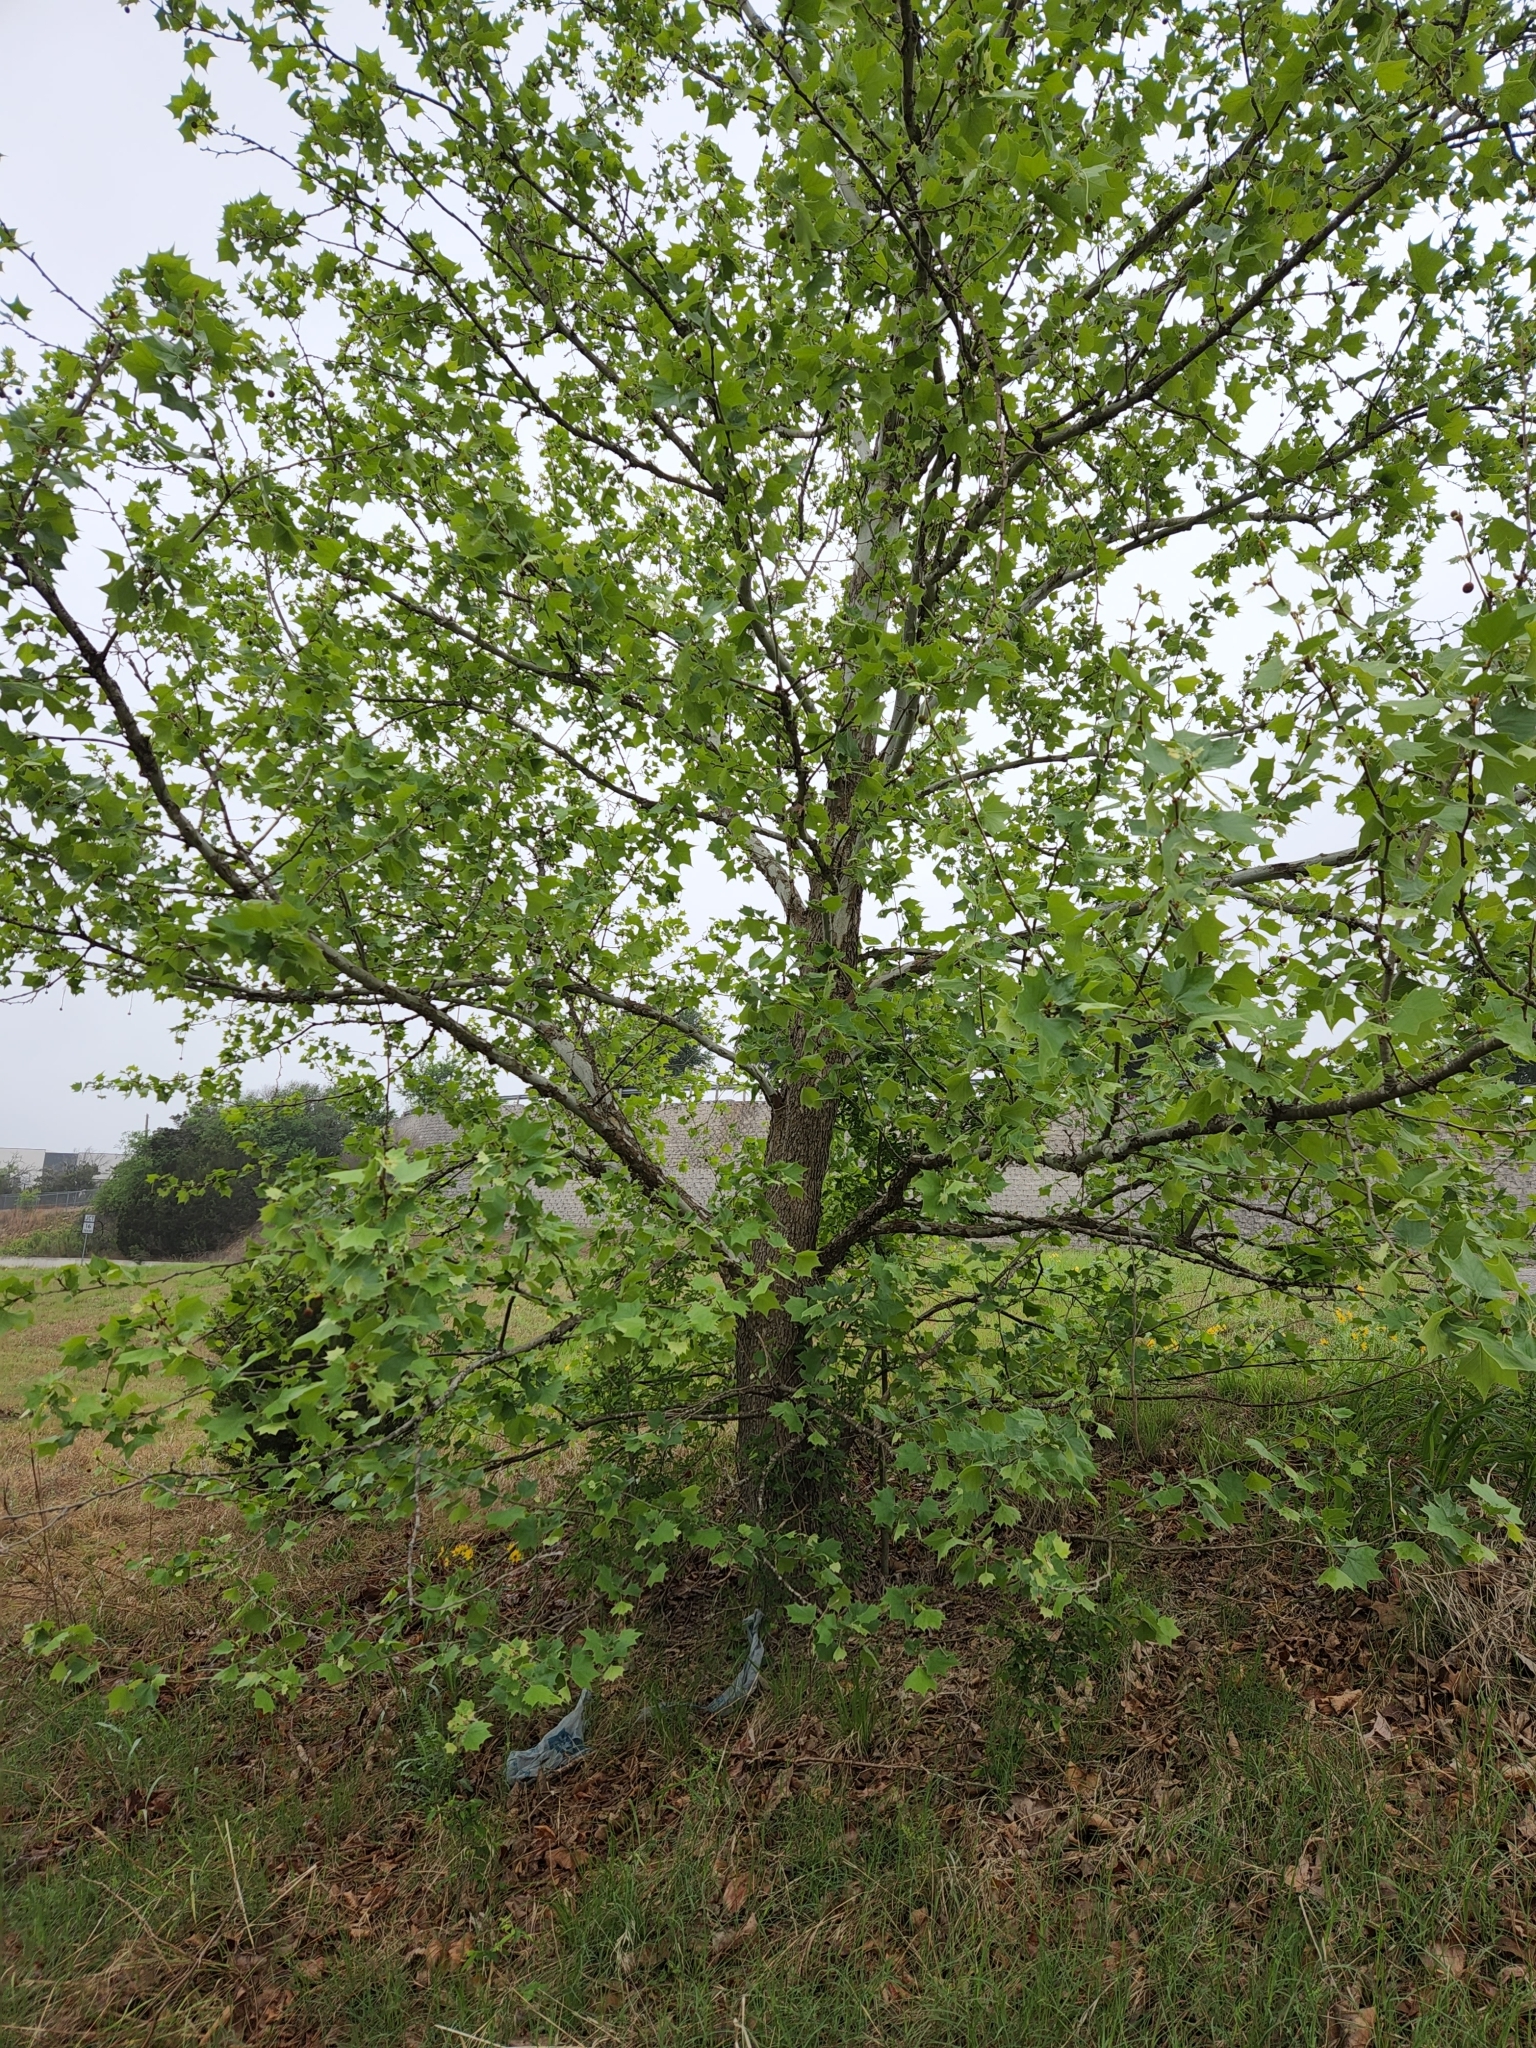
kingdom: Plantae
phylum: Tracheophyta
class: Magnoliopsida
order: Proteales
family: Platanaceae
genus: Platanus
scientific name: Platanus occidentalis
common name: American sycamore
